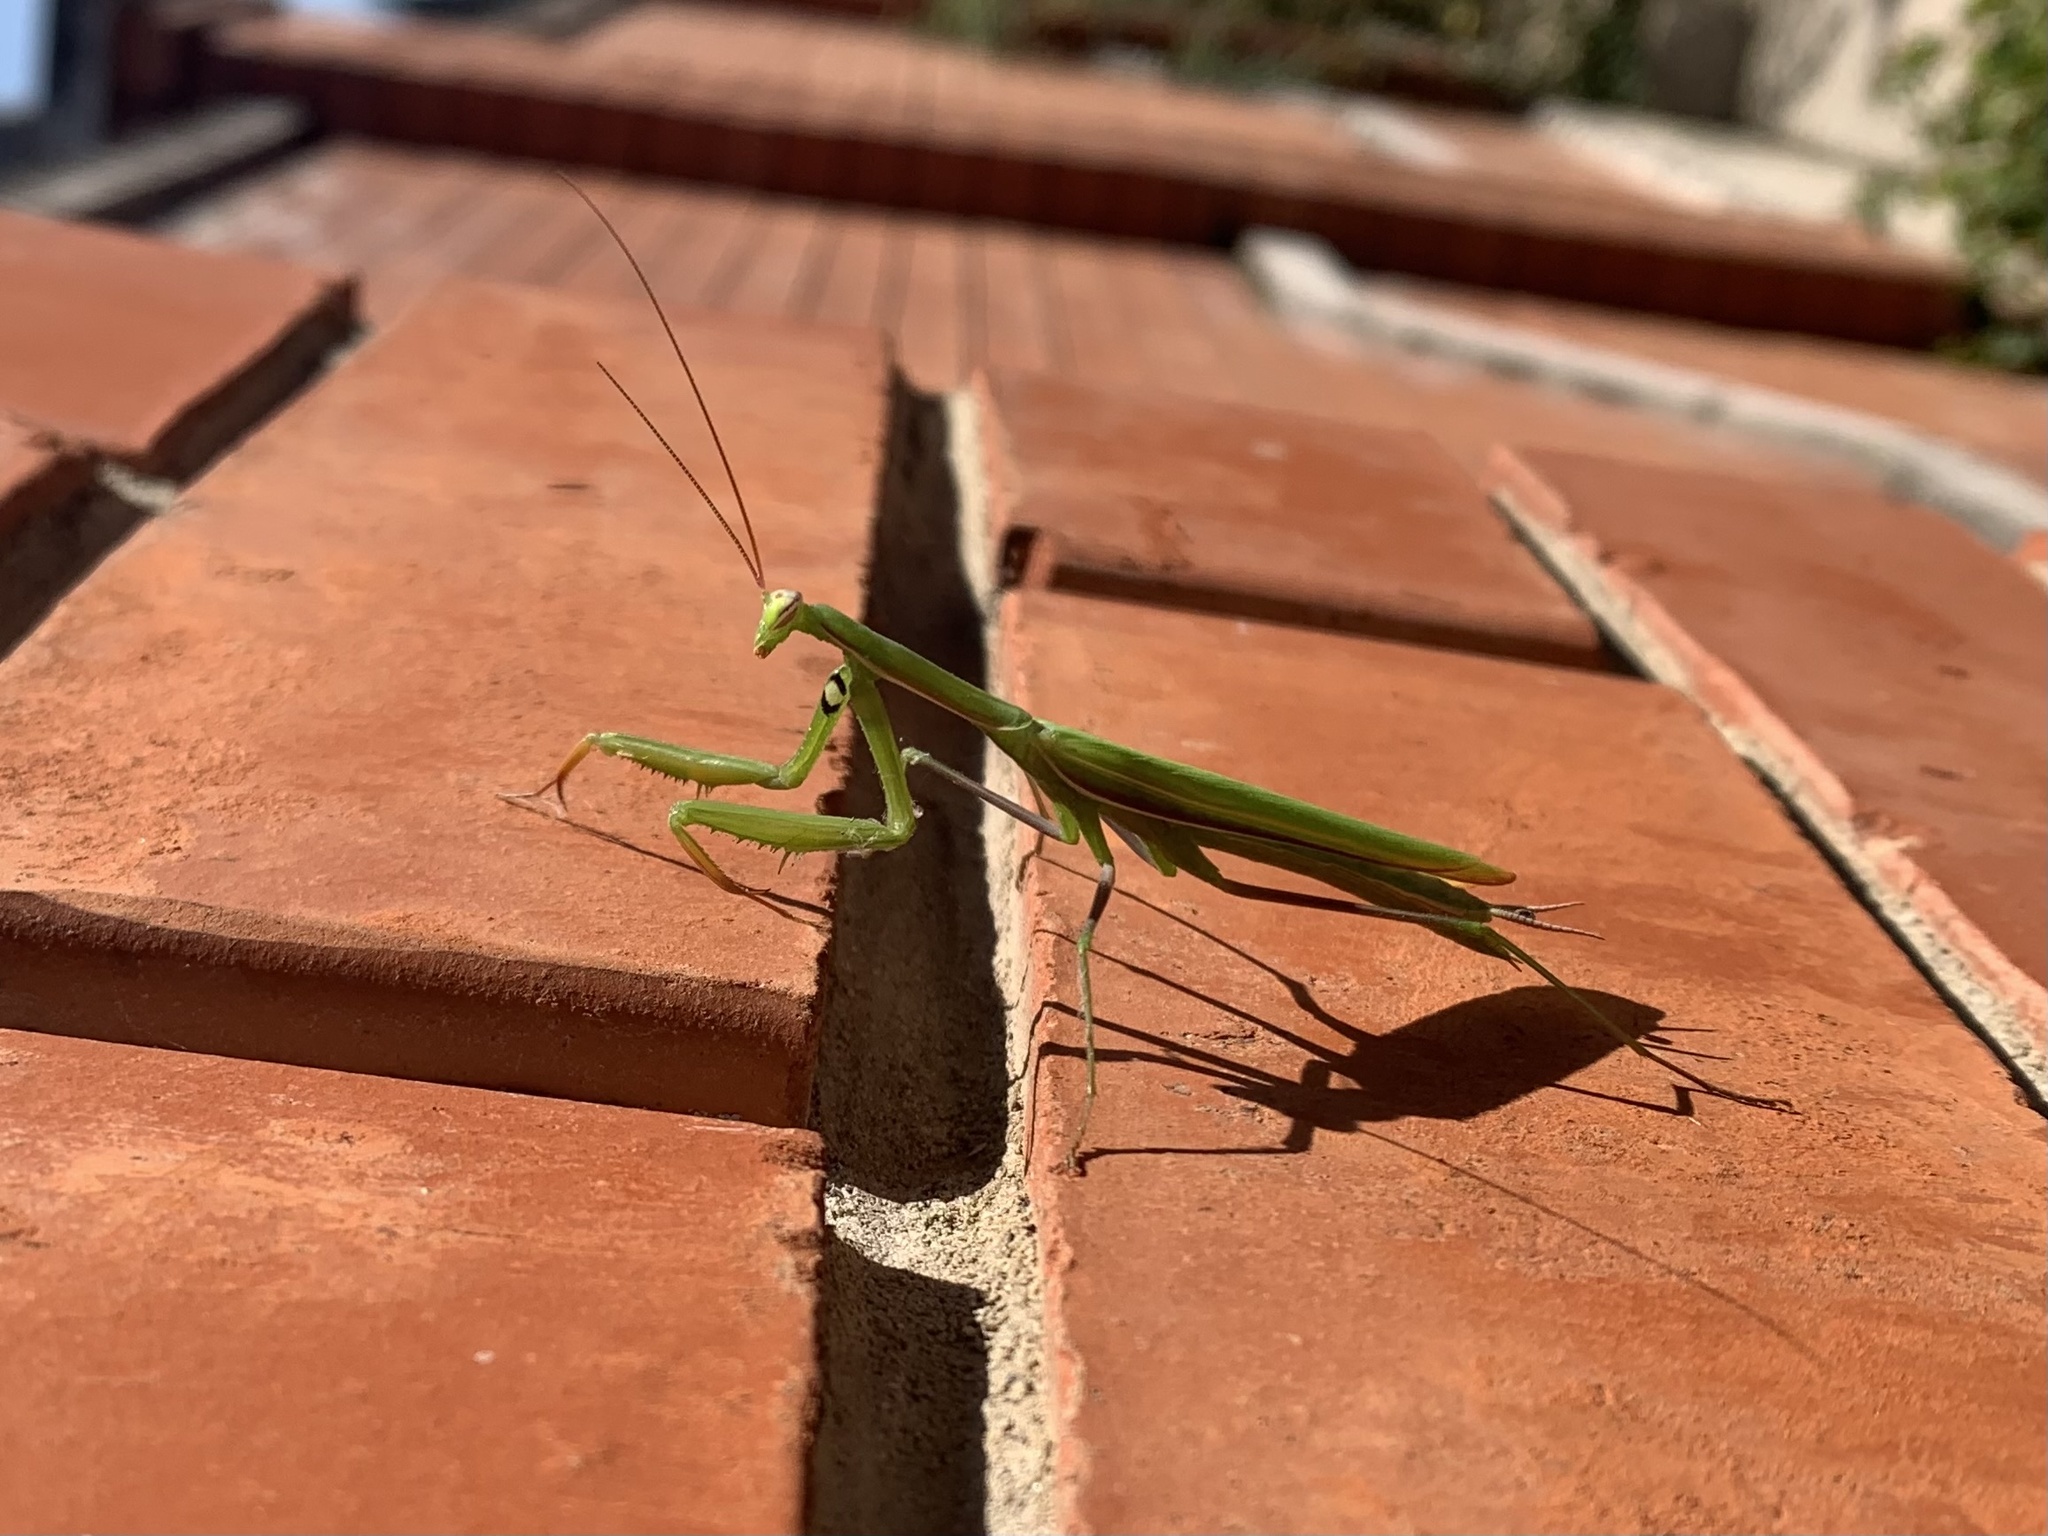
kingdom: Animalia
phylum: Arthropoda
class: Insecta
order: Mantodea
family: Mantidae
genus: Mantis
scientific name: Mantis religiosa
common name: Praying mantis
